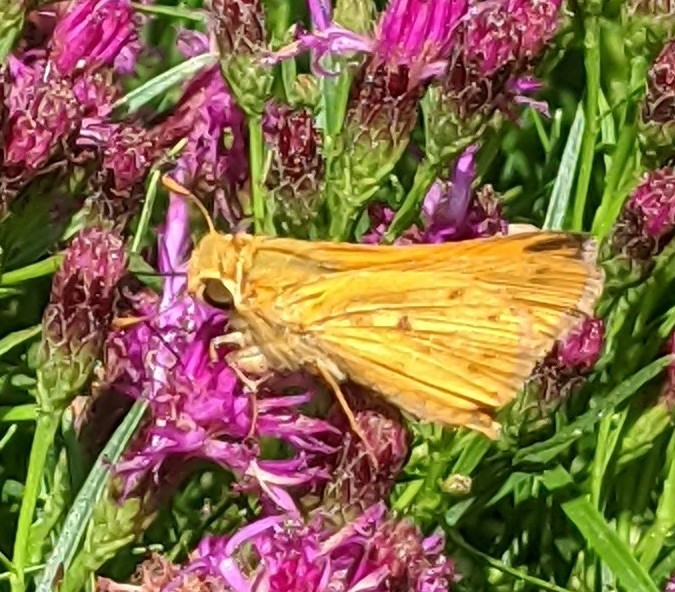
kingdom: Animalia
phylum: Arthropoda
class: Insecta
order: Lepidoptera
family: Hesperiidae
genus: Hylephila
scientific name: Hylephila phyleus
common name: Fiery skipper
